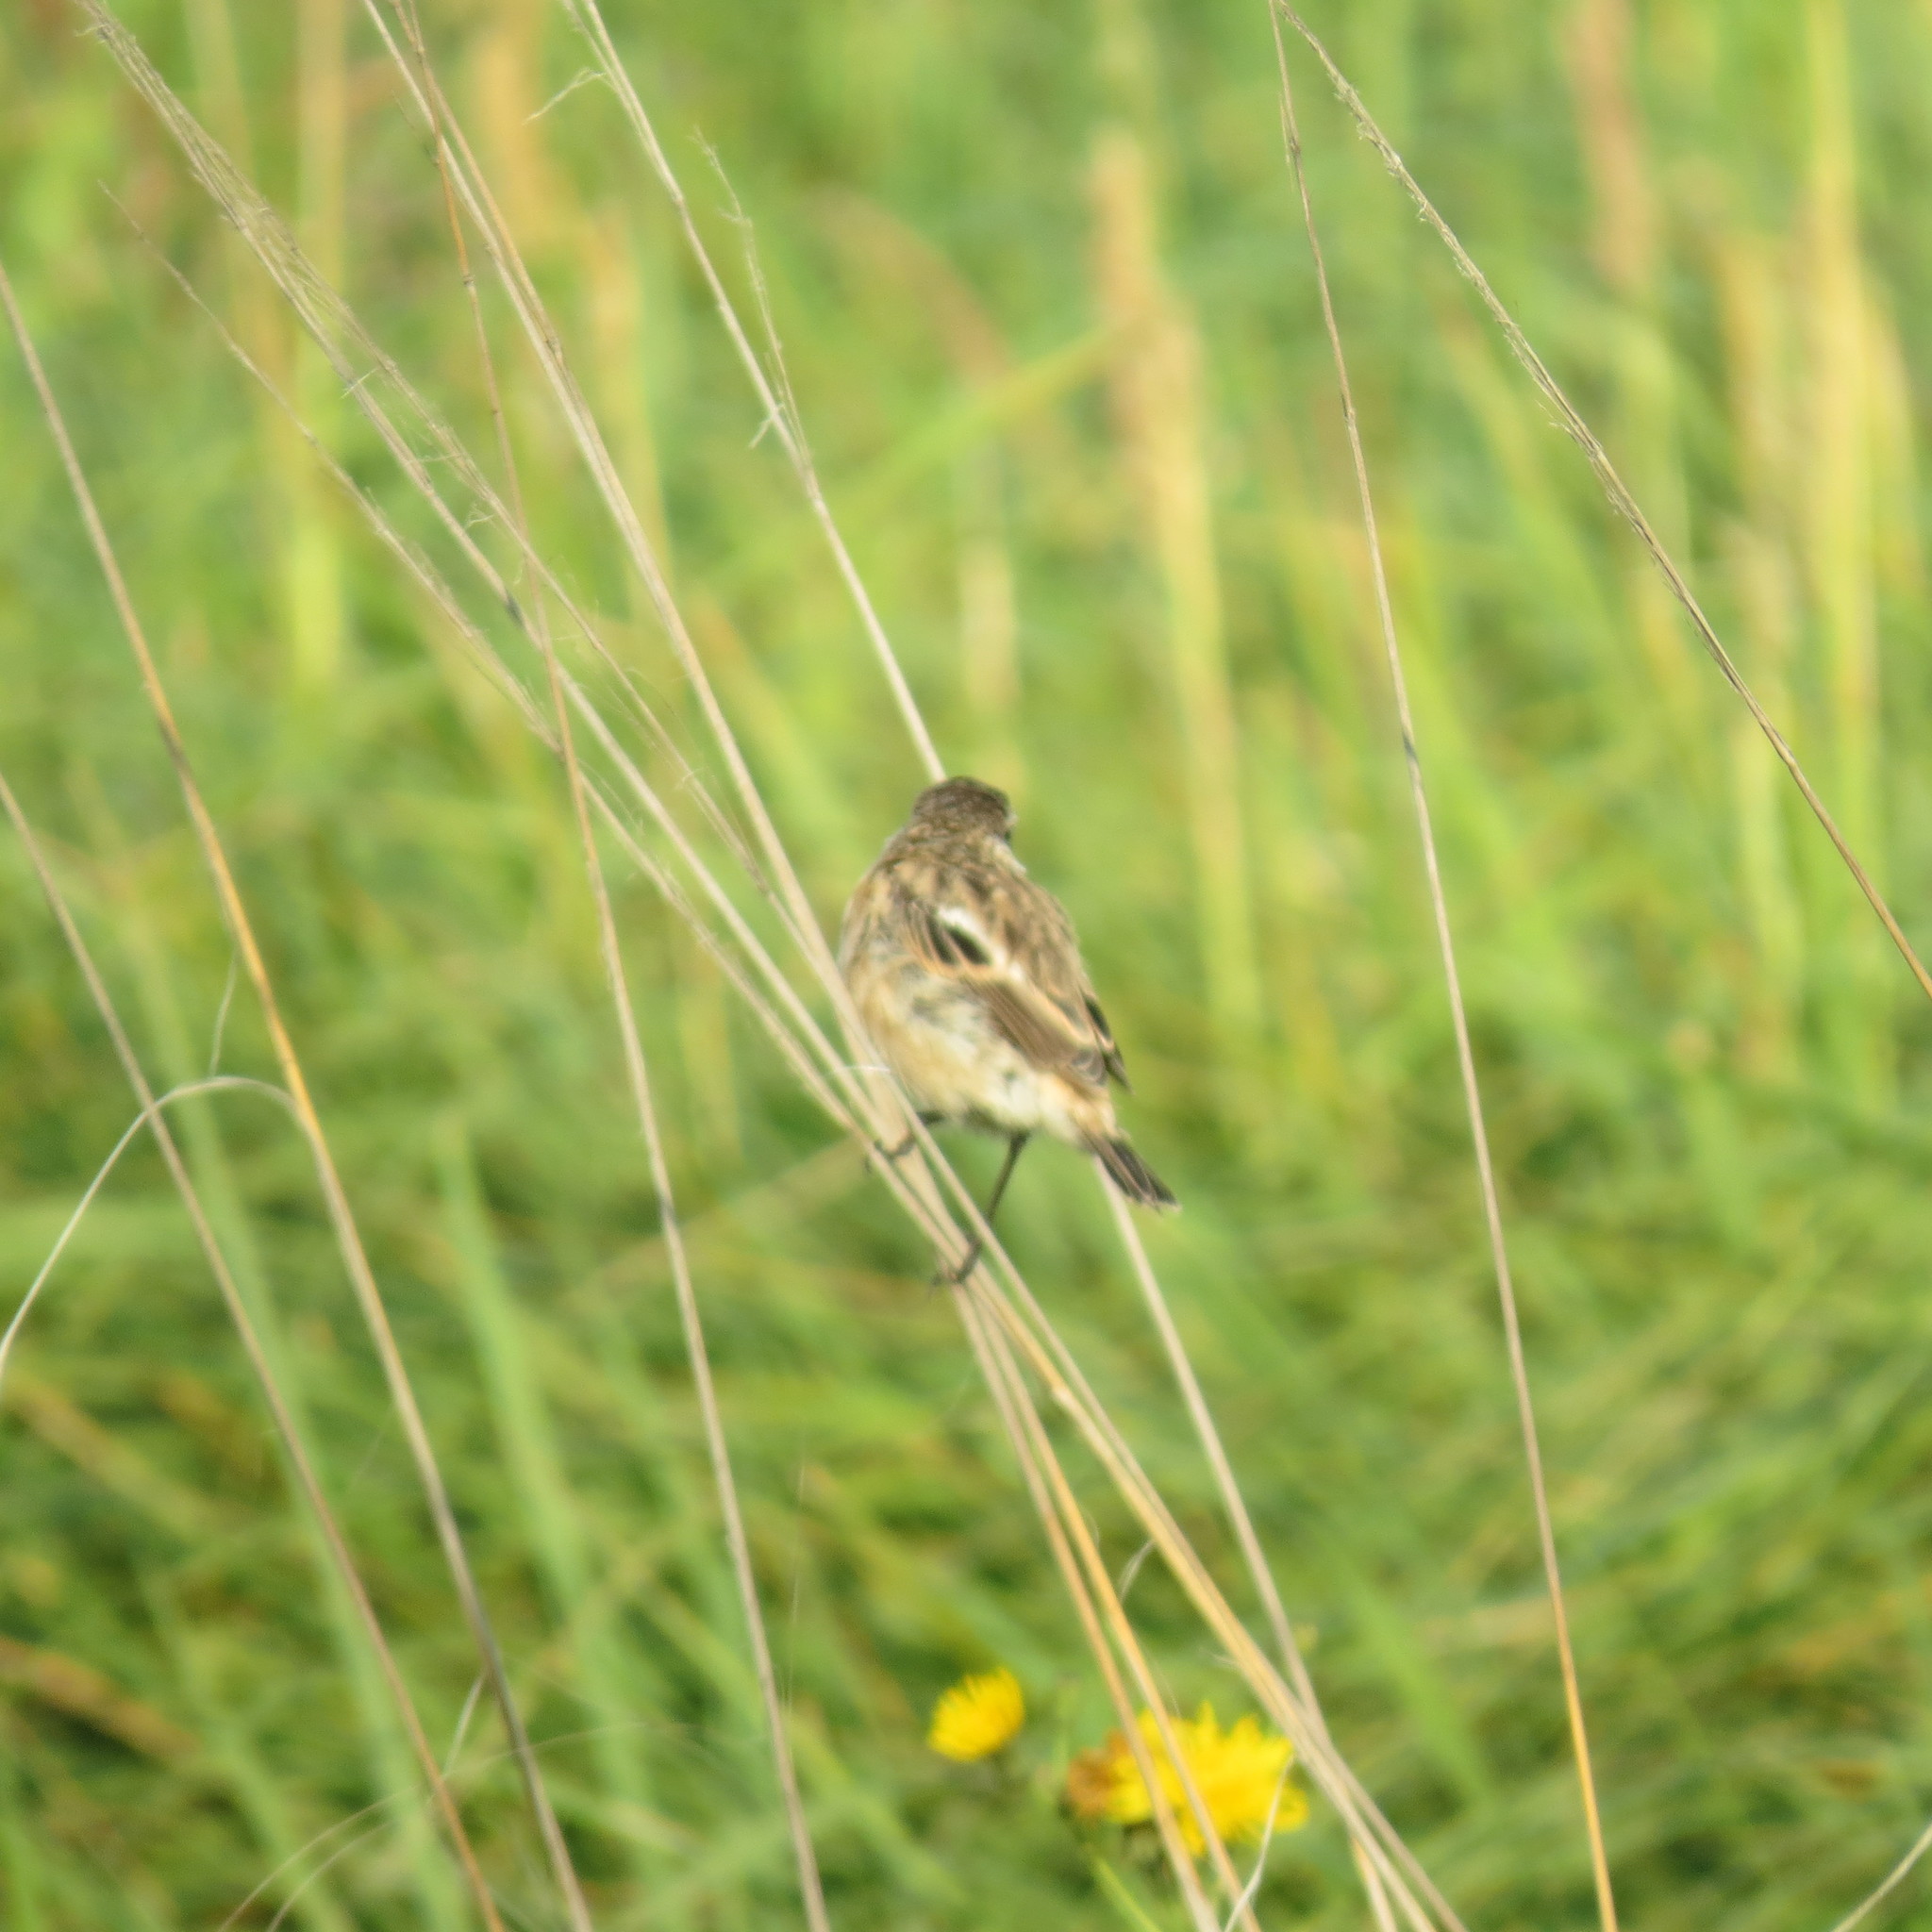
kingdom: Animalia
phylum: Chordata
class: Aves
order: Passeriformes
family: Muscicapidae
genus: Saxicola
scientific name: Saxicola maurus
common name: Siberian stonechat
